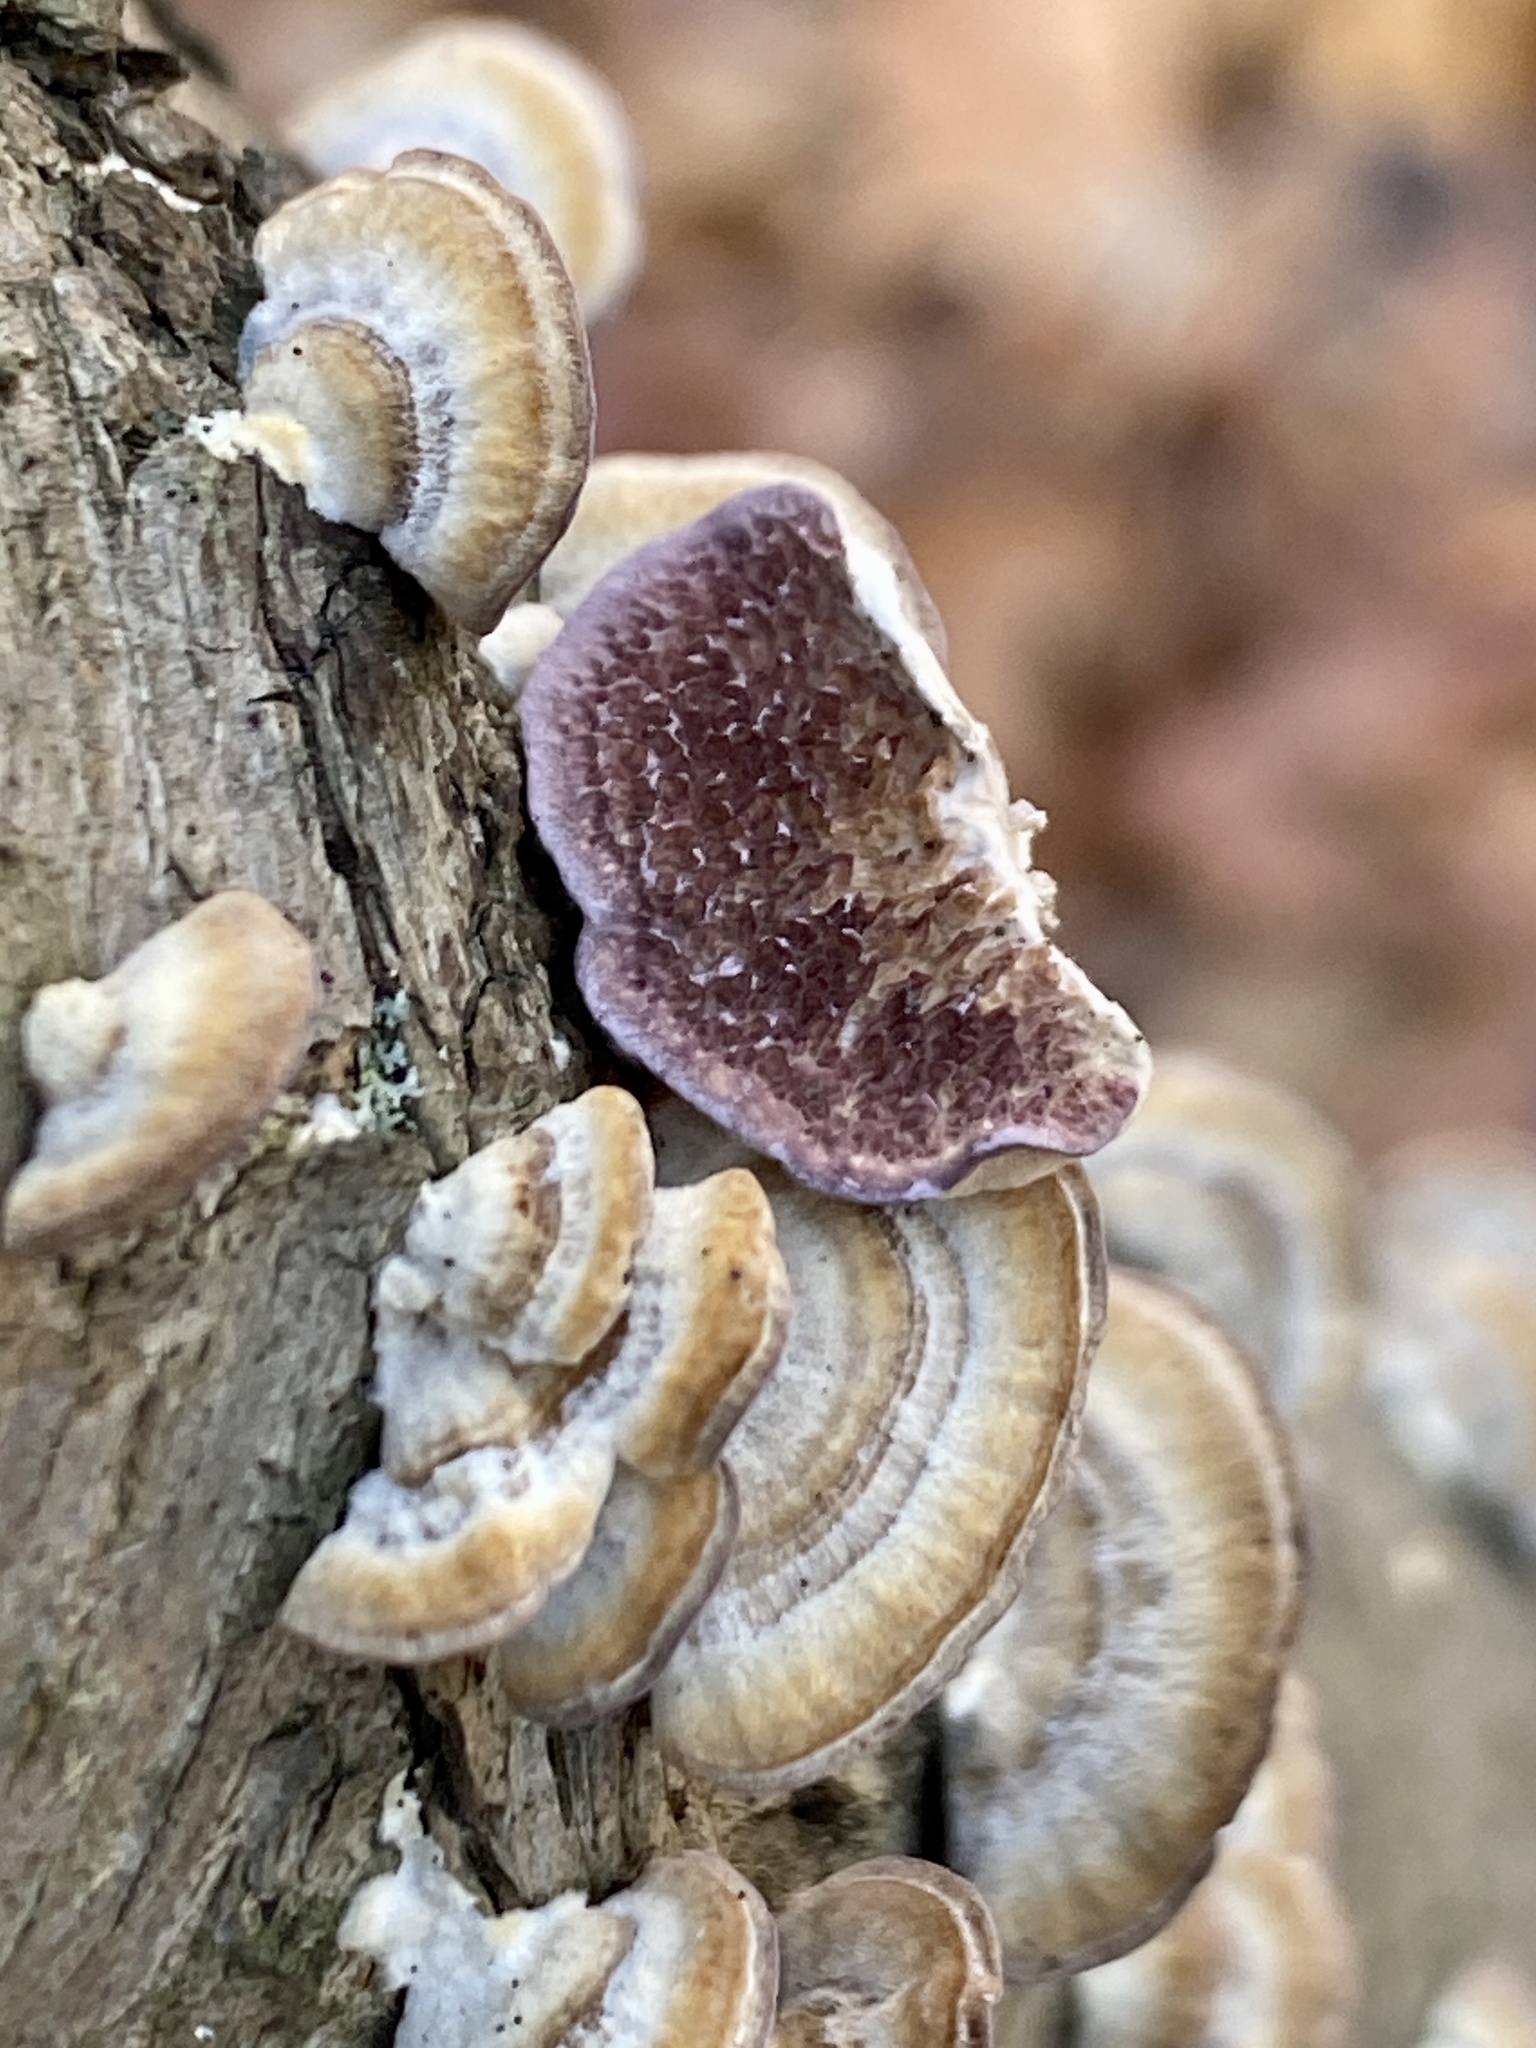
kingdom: Fungi
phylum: Basidiomycota
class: Agaricomycetes
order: Hymenochaetales
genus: Trichaptum
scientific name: Trichaptum biforme
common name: Violet-toothed polypore
